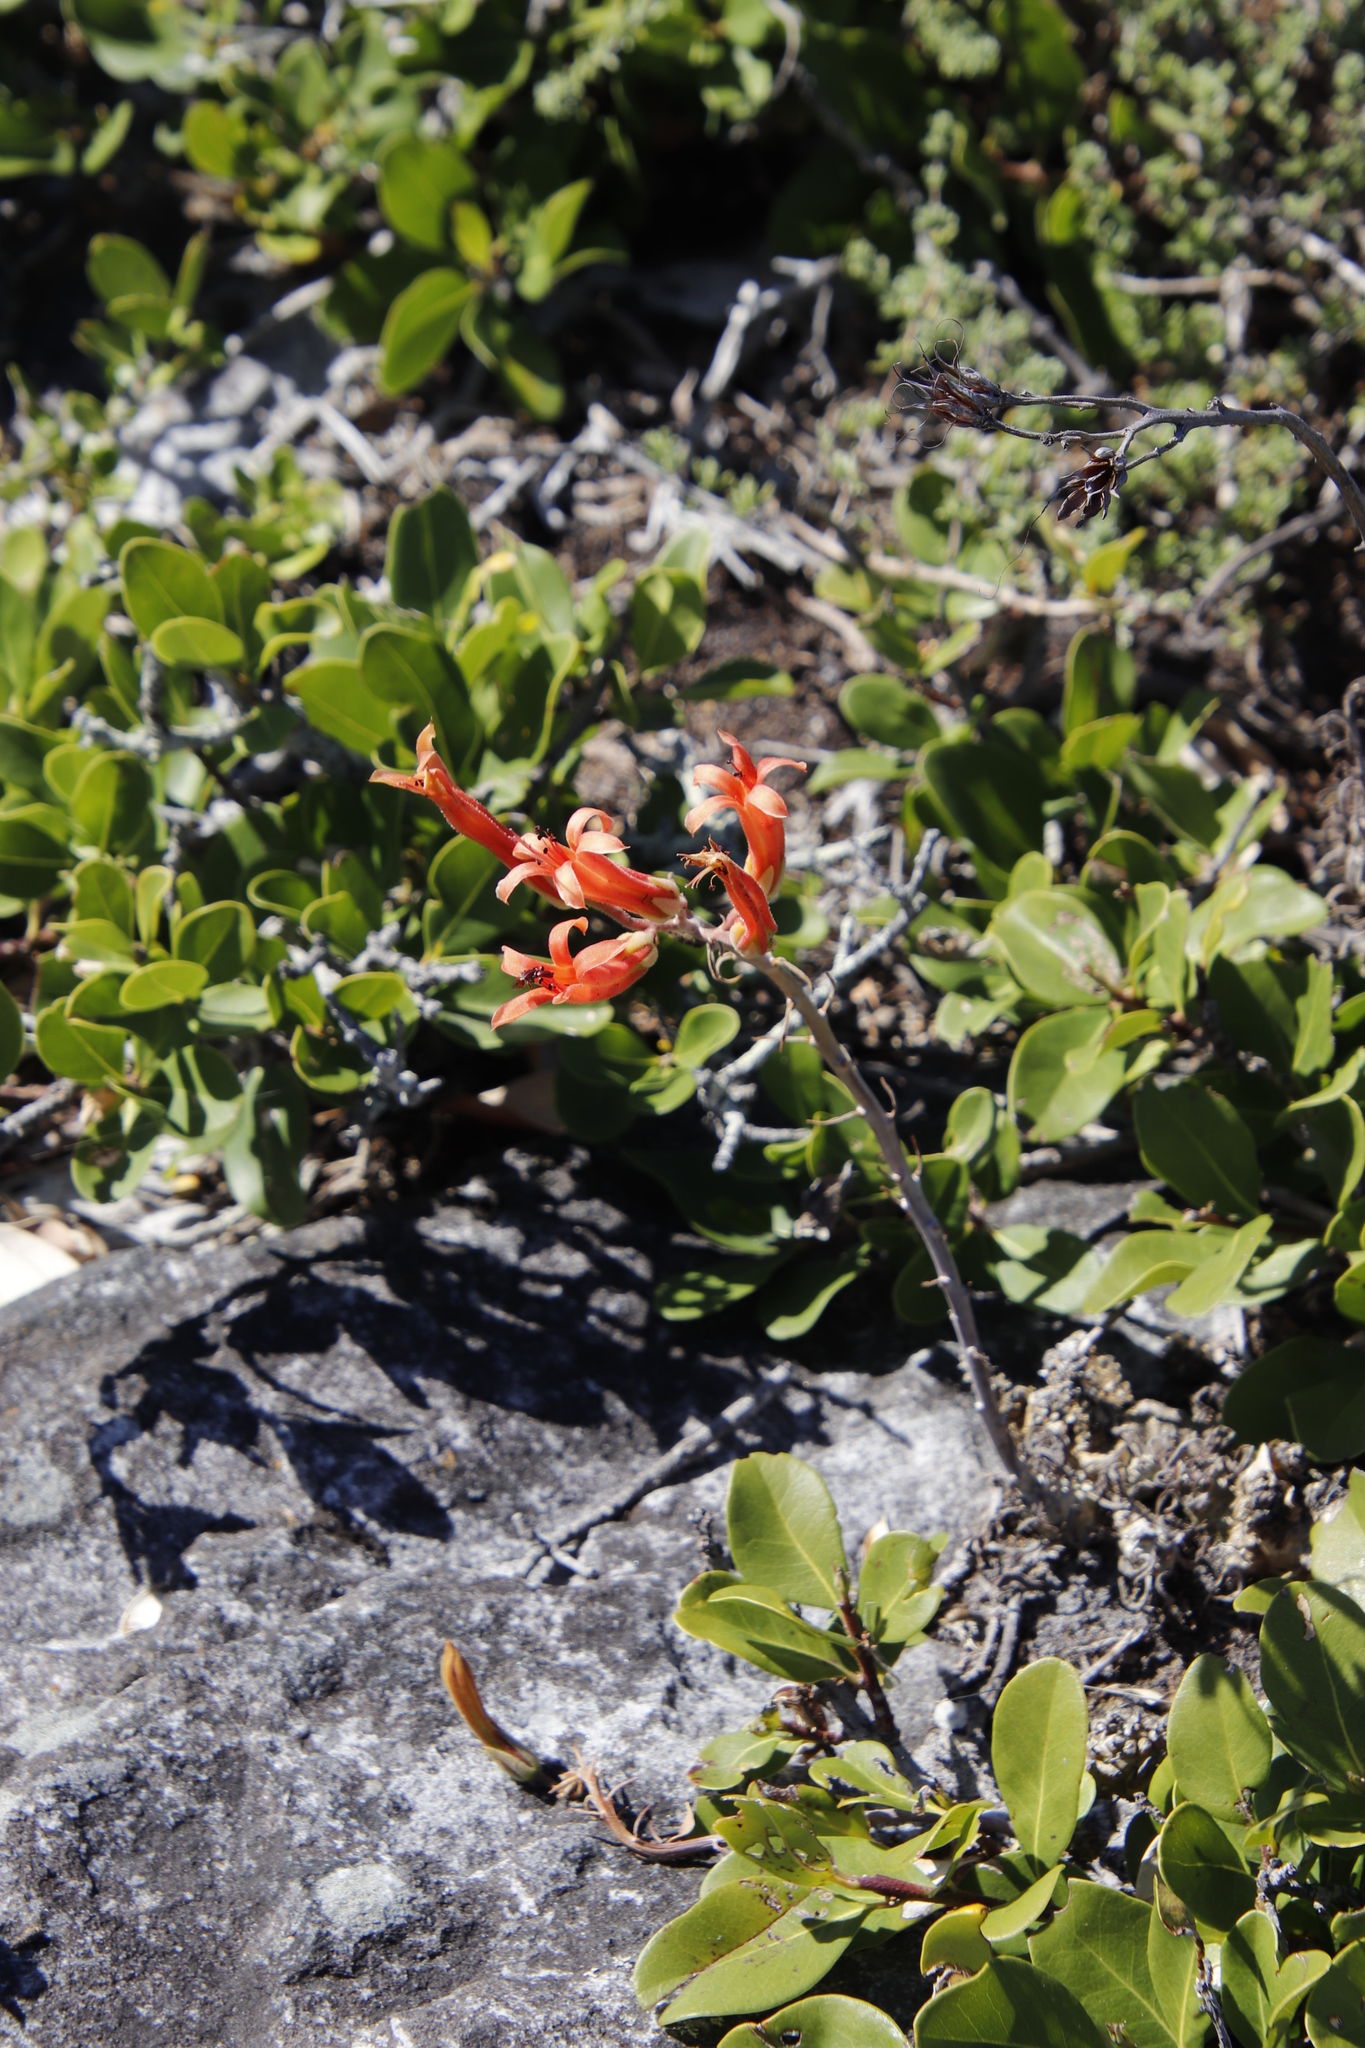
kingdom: Plantae
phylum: Tracheophyta
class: Magnoliopsida
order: Saxifragales
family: Crassulaceae
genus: Tylecodon
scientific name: Tylecodon grandiflorus
